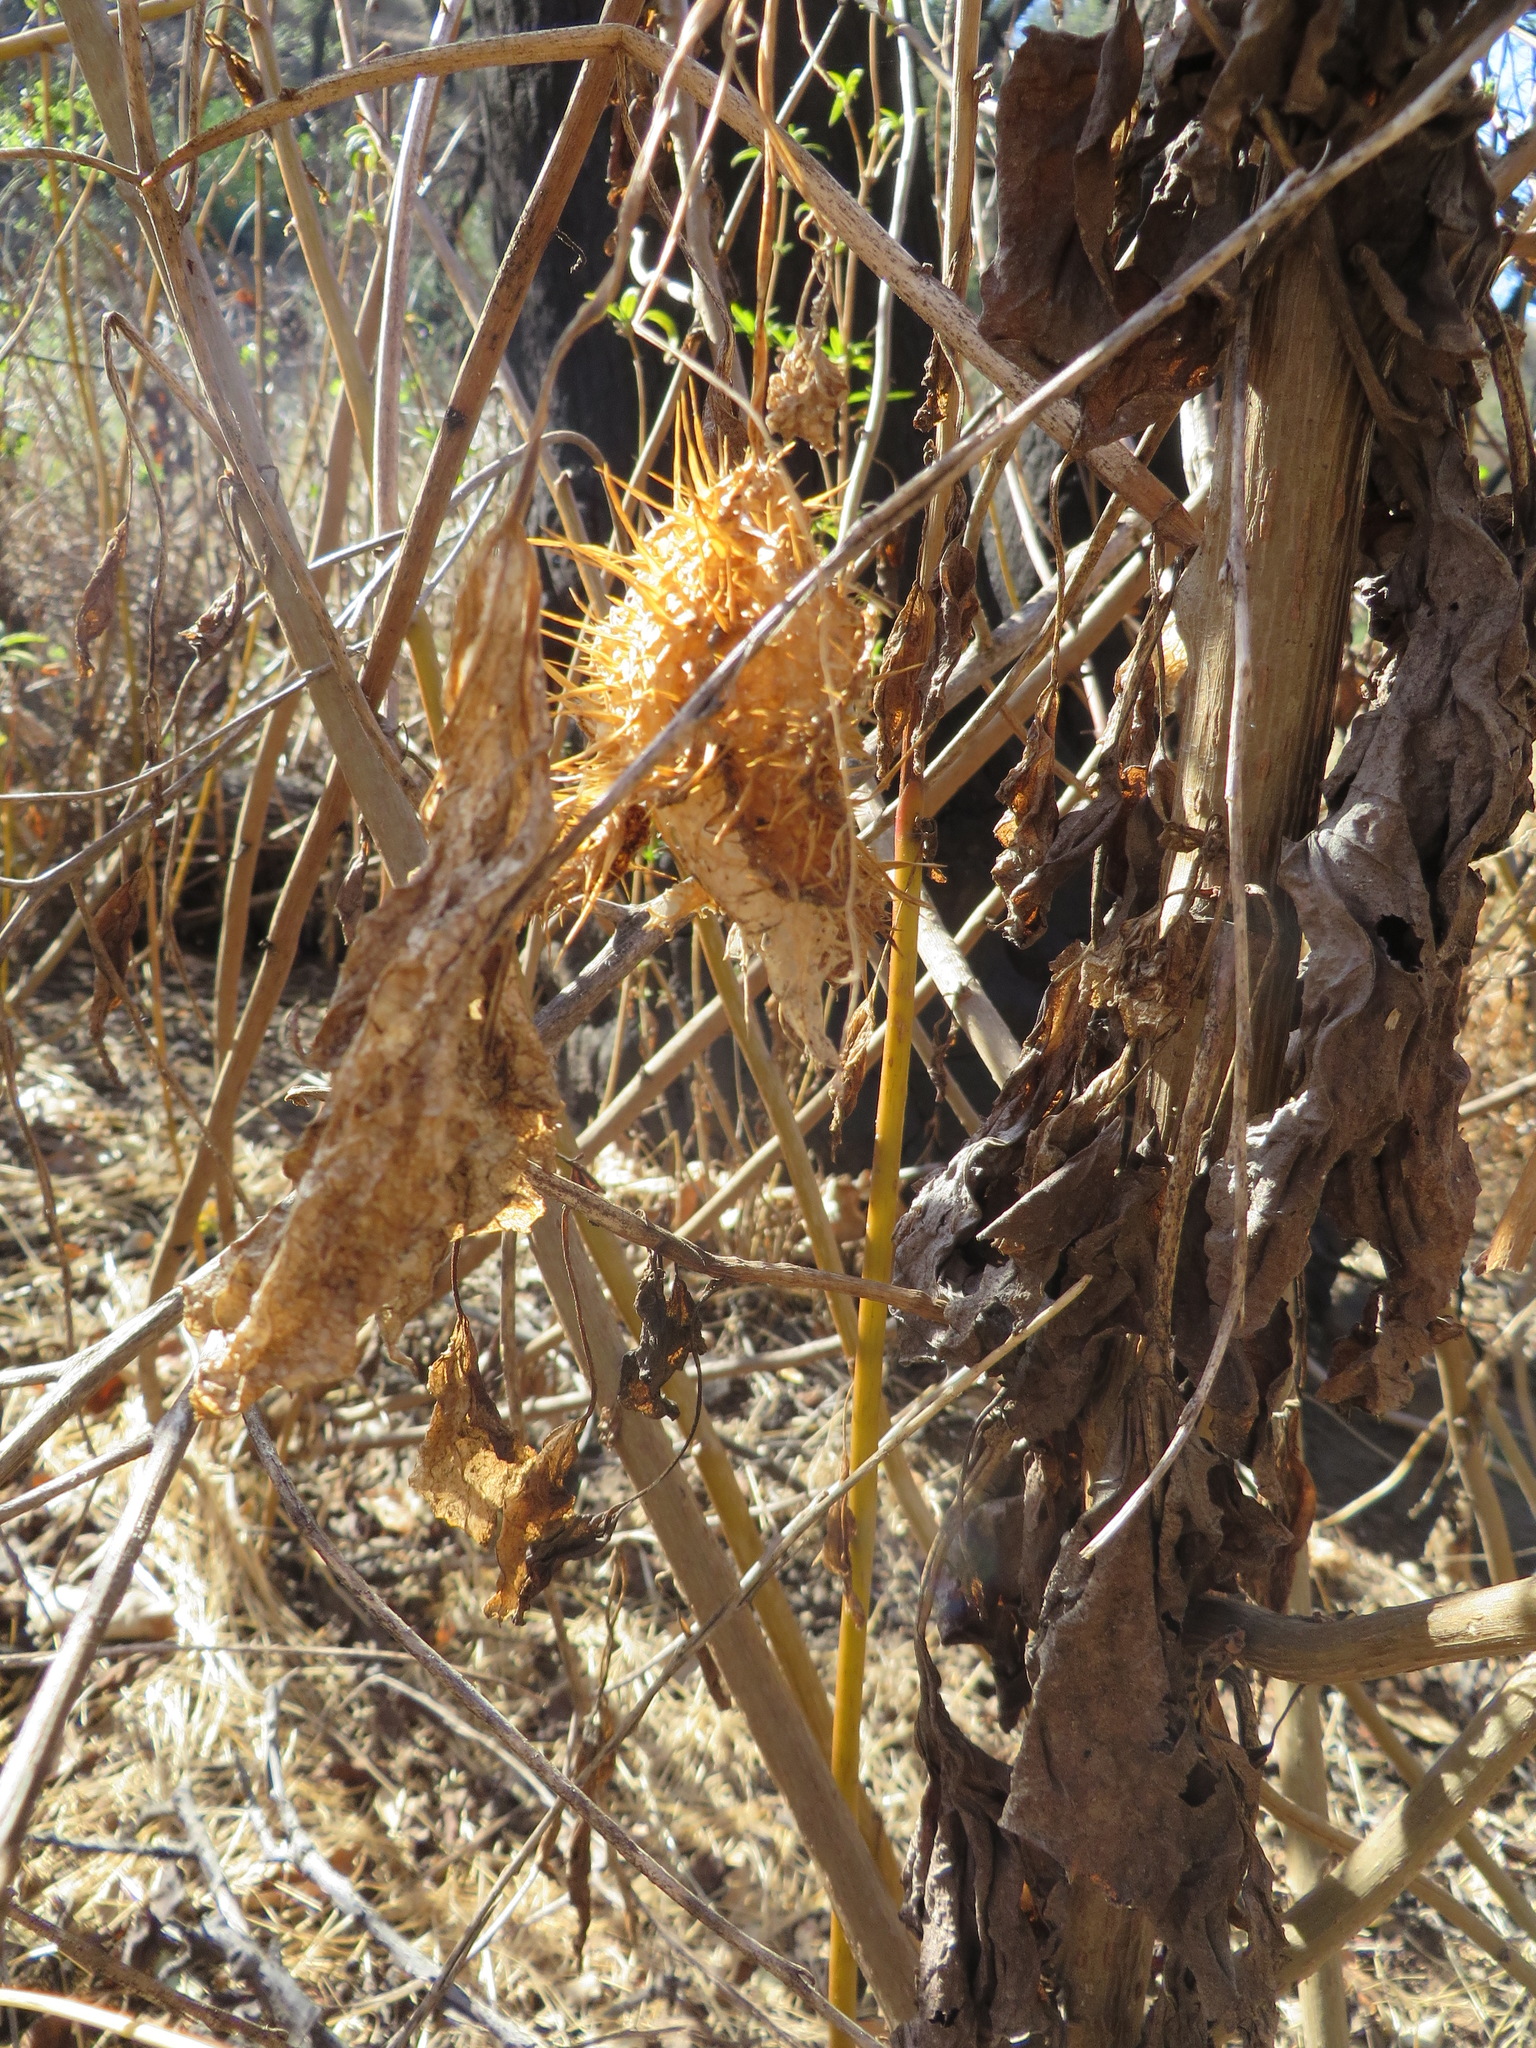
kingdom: Plantae
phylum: Tracheophyta
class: Magnoliopsida
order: Cucurbitales
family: Cucurbitaceae
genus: Marah
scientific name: Marah macrocarpa
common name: Cucamonga manroot
